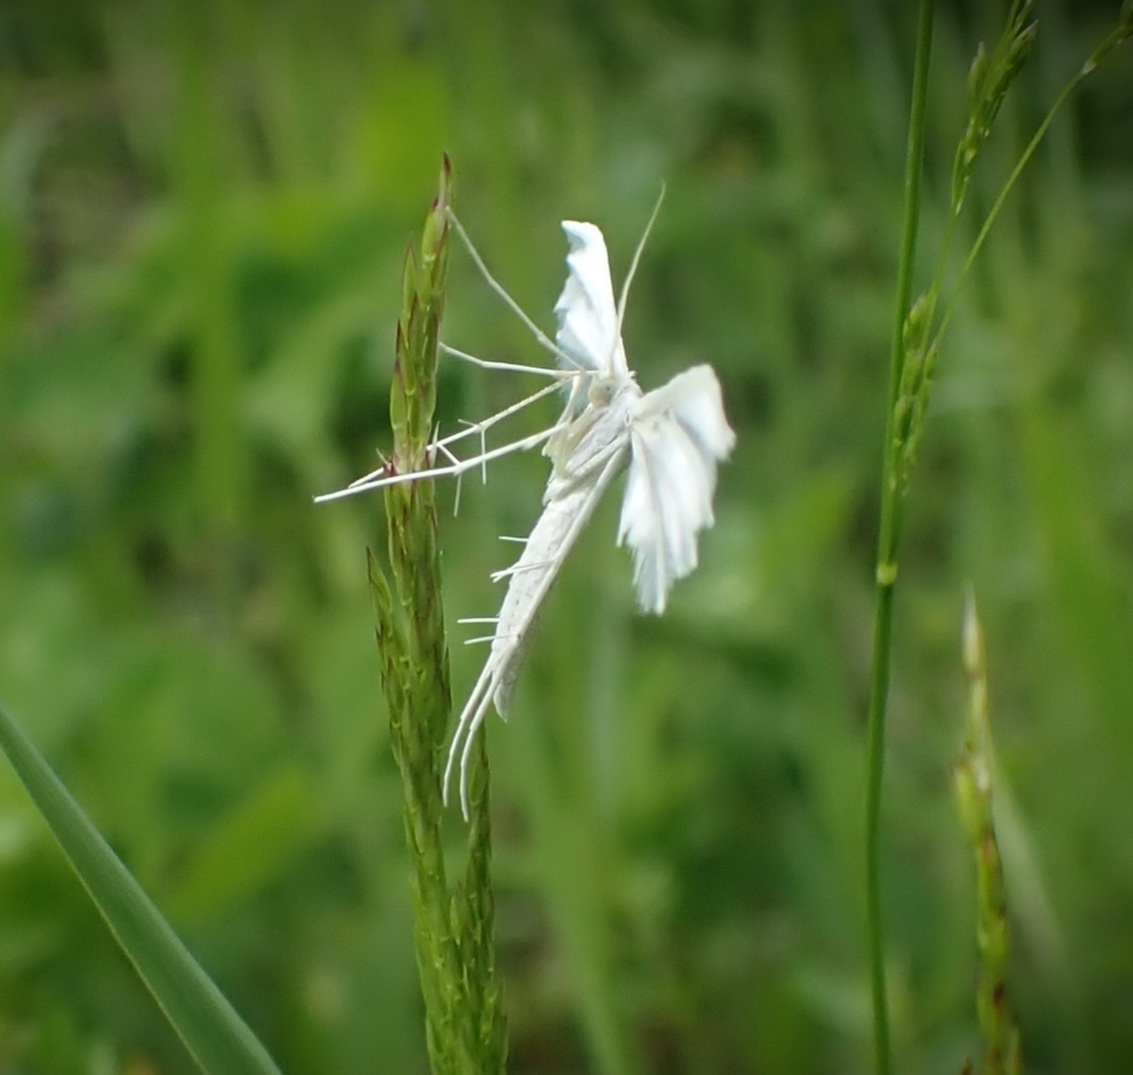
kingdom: Animalia
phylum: Arthropoda
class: Insecta
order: Lepidoptera
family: Pterophoridae
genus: Pterophorus
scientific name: Pterophorus pentadactyla
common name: White plume moth
